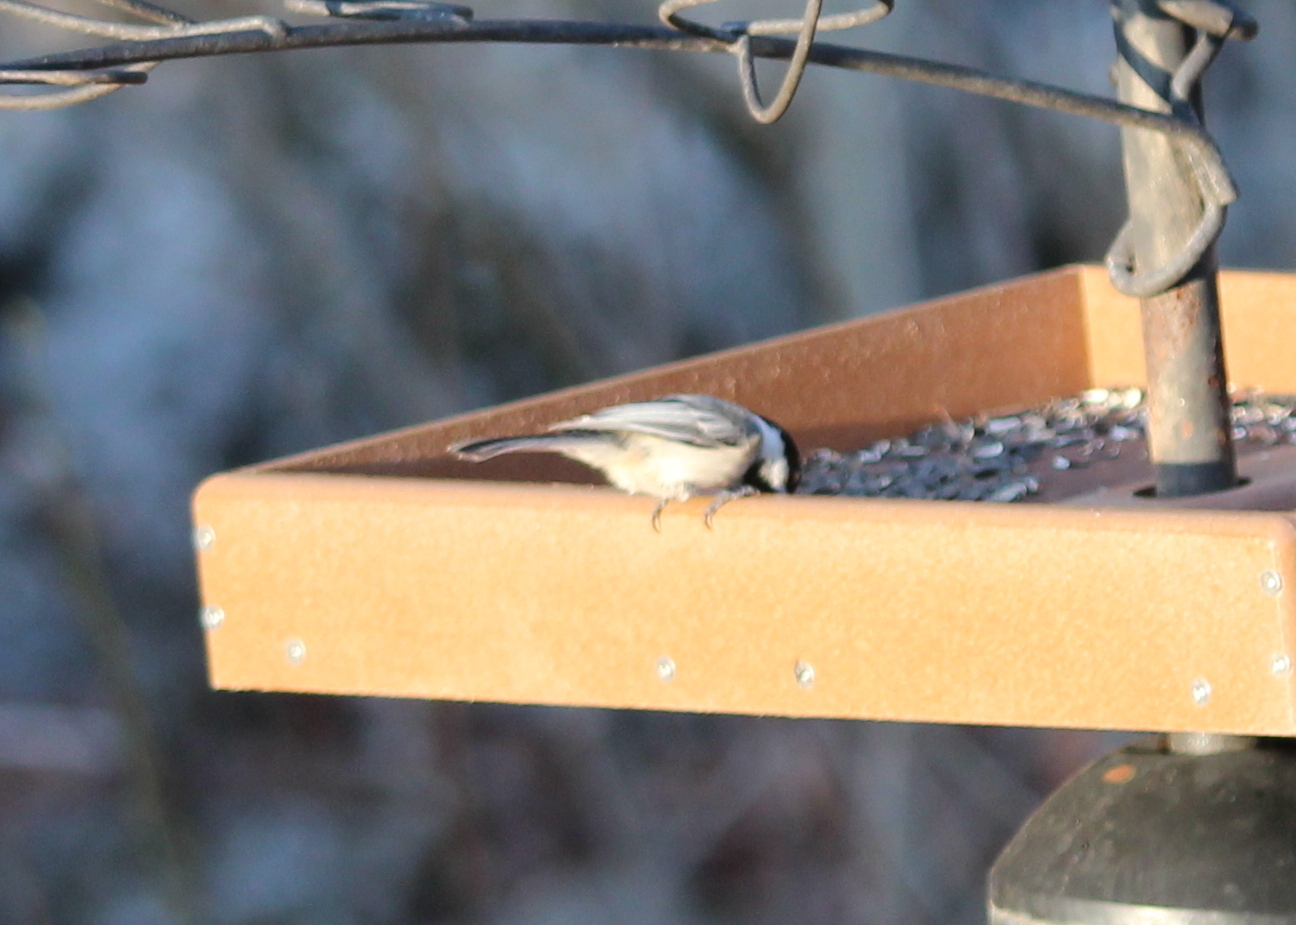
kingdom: Animalia
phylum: Chordata
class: Aves
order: Passeriformes
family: Paridae
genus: Poecile
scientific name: Poecile atricapillus
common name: Black-capped chickadee
